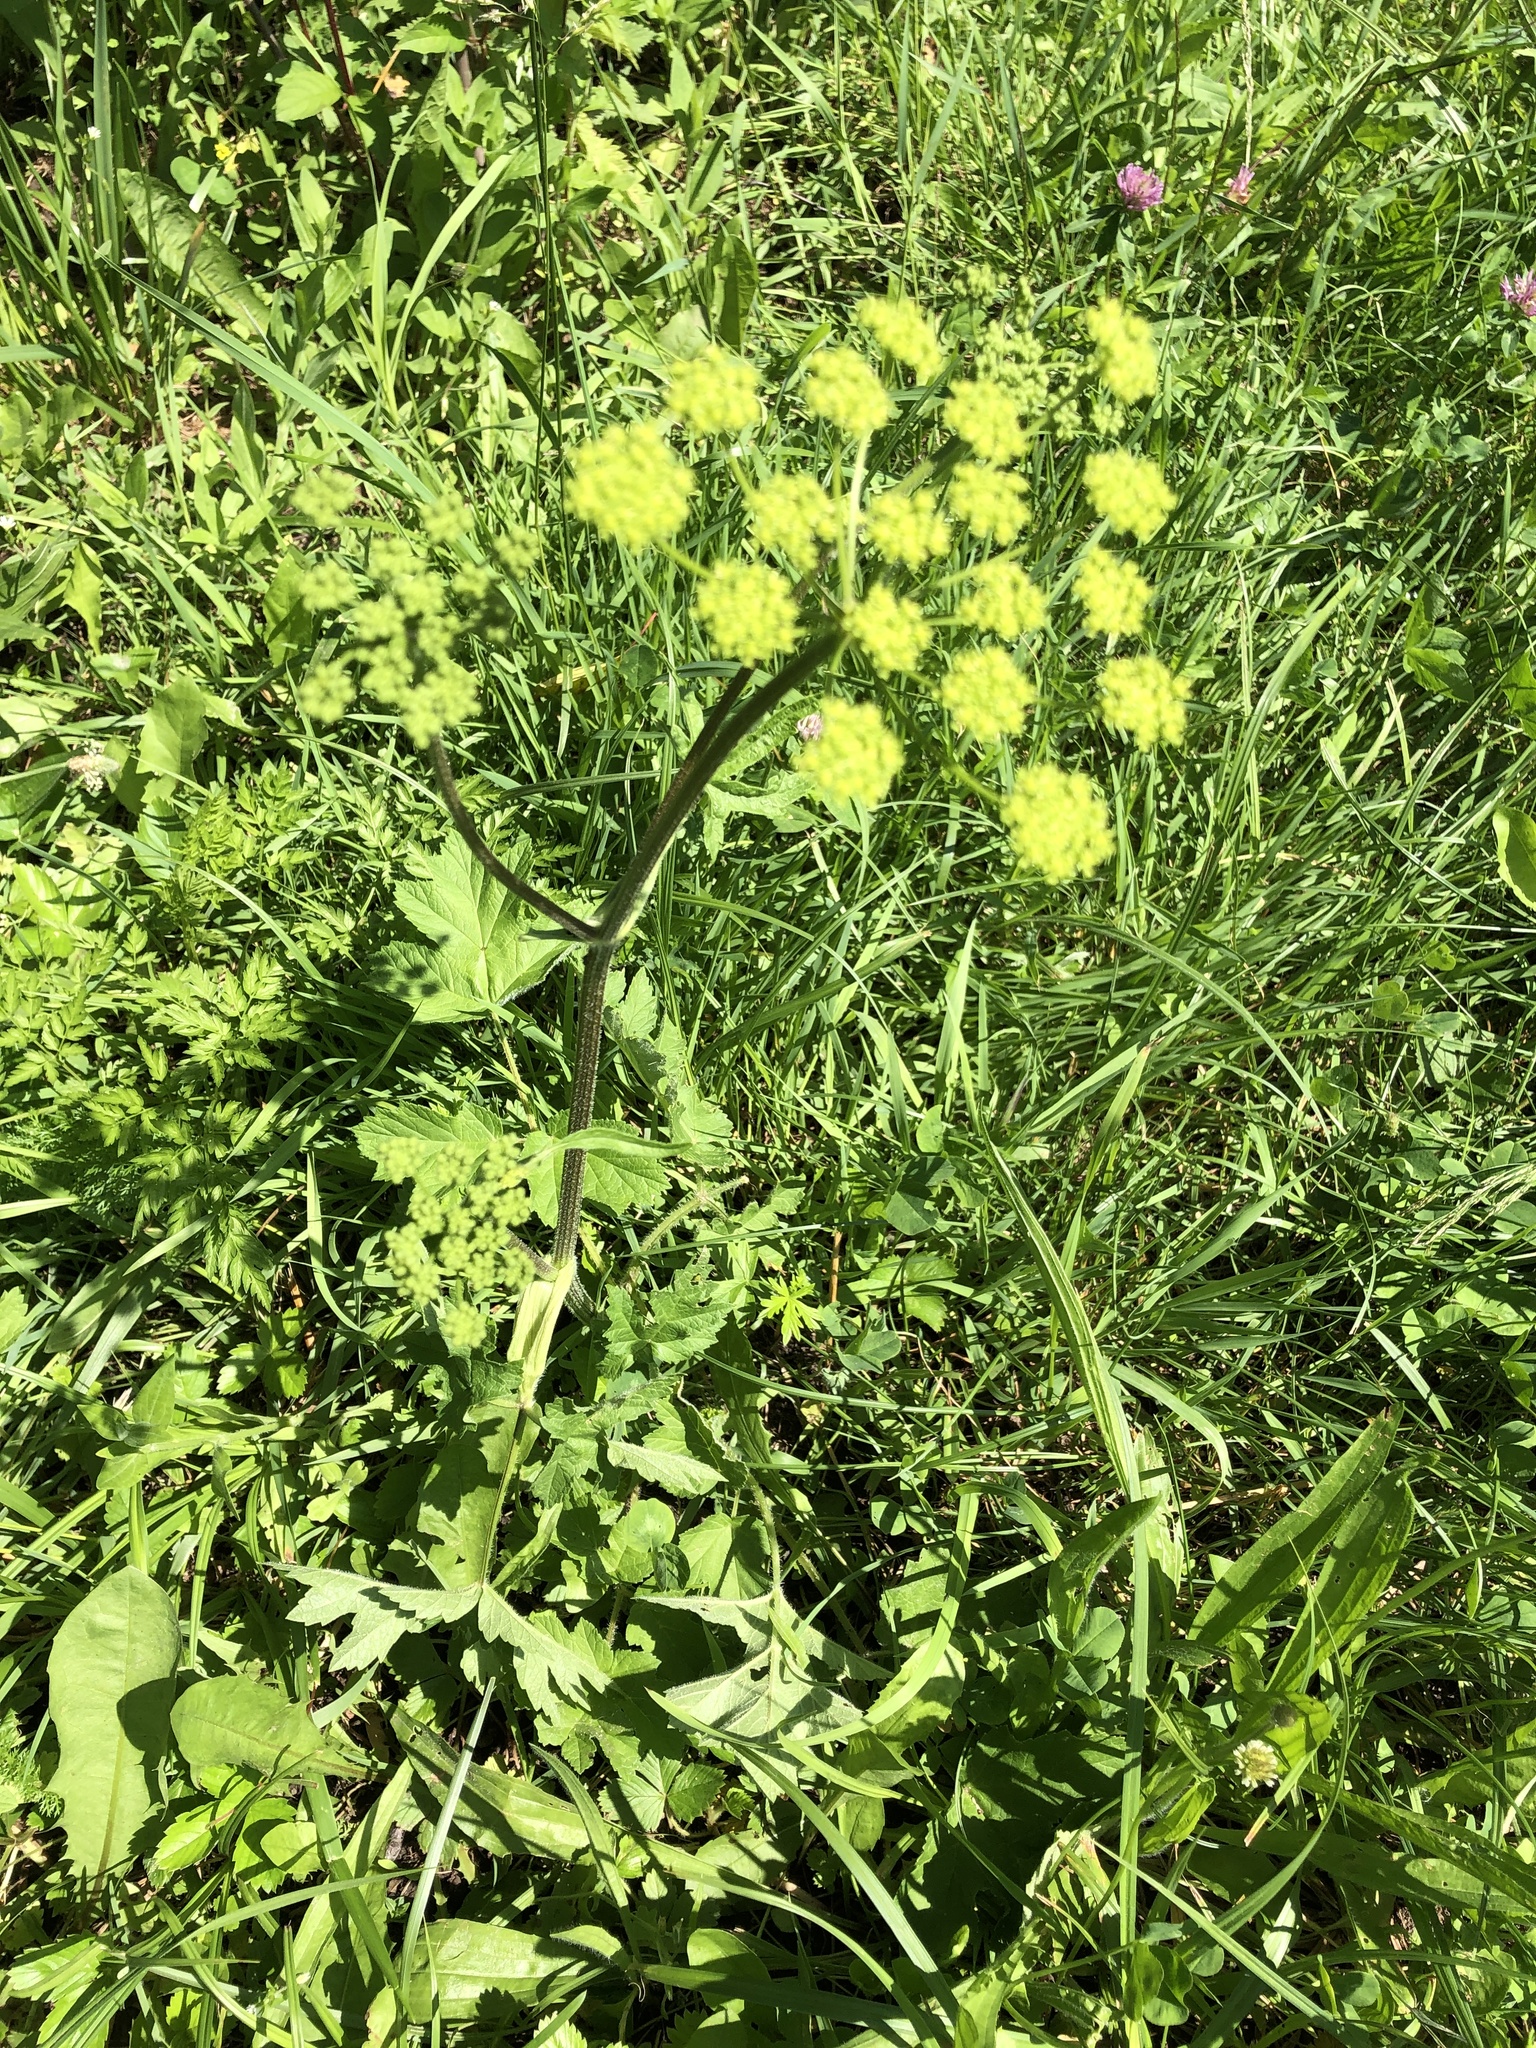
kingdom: Plantae
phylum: Tracheophyta
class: Magnoliopsida
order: Apiales
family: Apiaceae
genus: Heracleum
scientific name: Heracleum sphondylium
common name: Hogweed
